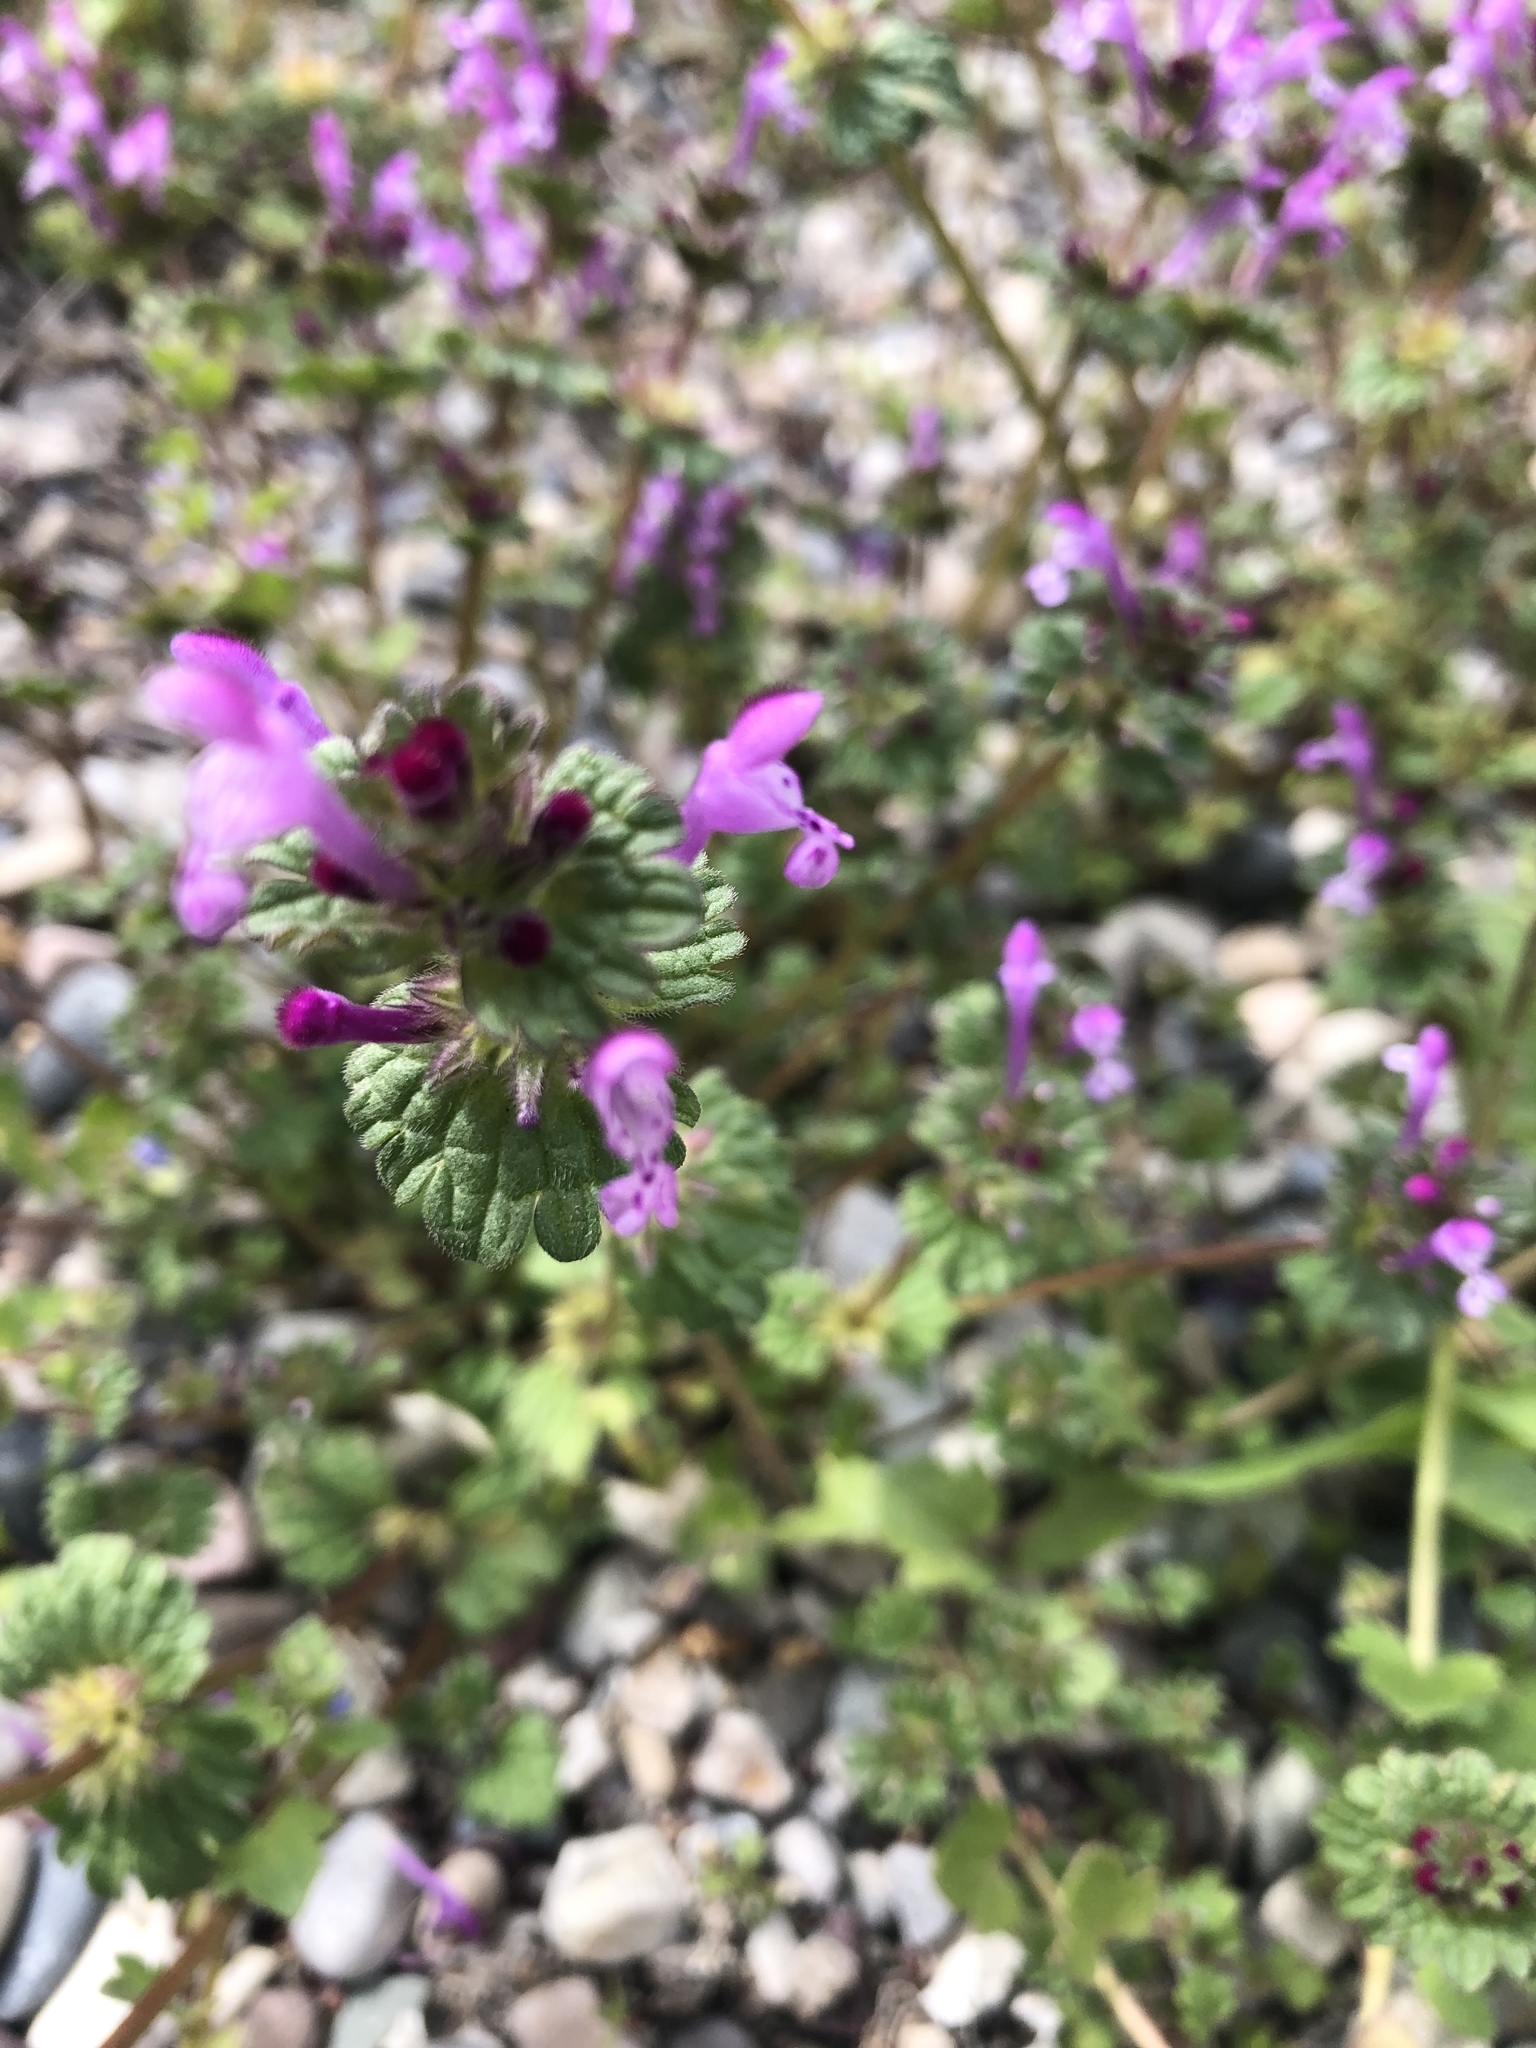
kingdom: Plantae
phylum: Tracheophyta
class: Magnoliopsida
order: Lamiales
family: Lamiaceae
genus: Lamium
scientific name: Lamium amplexicaule
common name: Henbit dead-nettle
